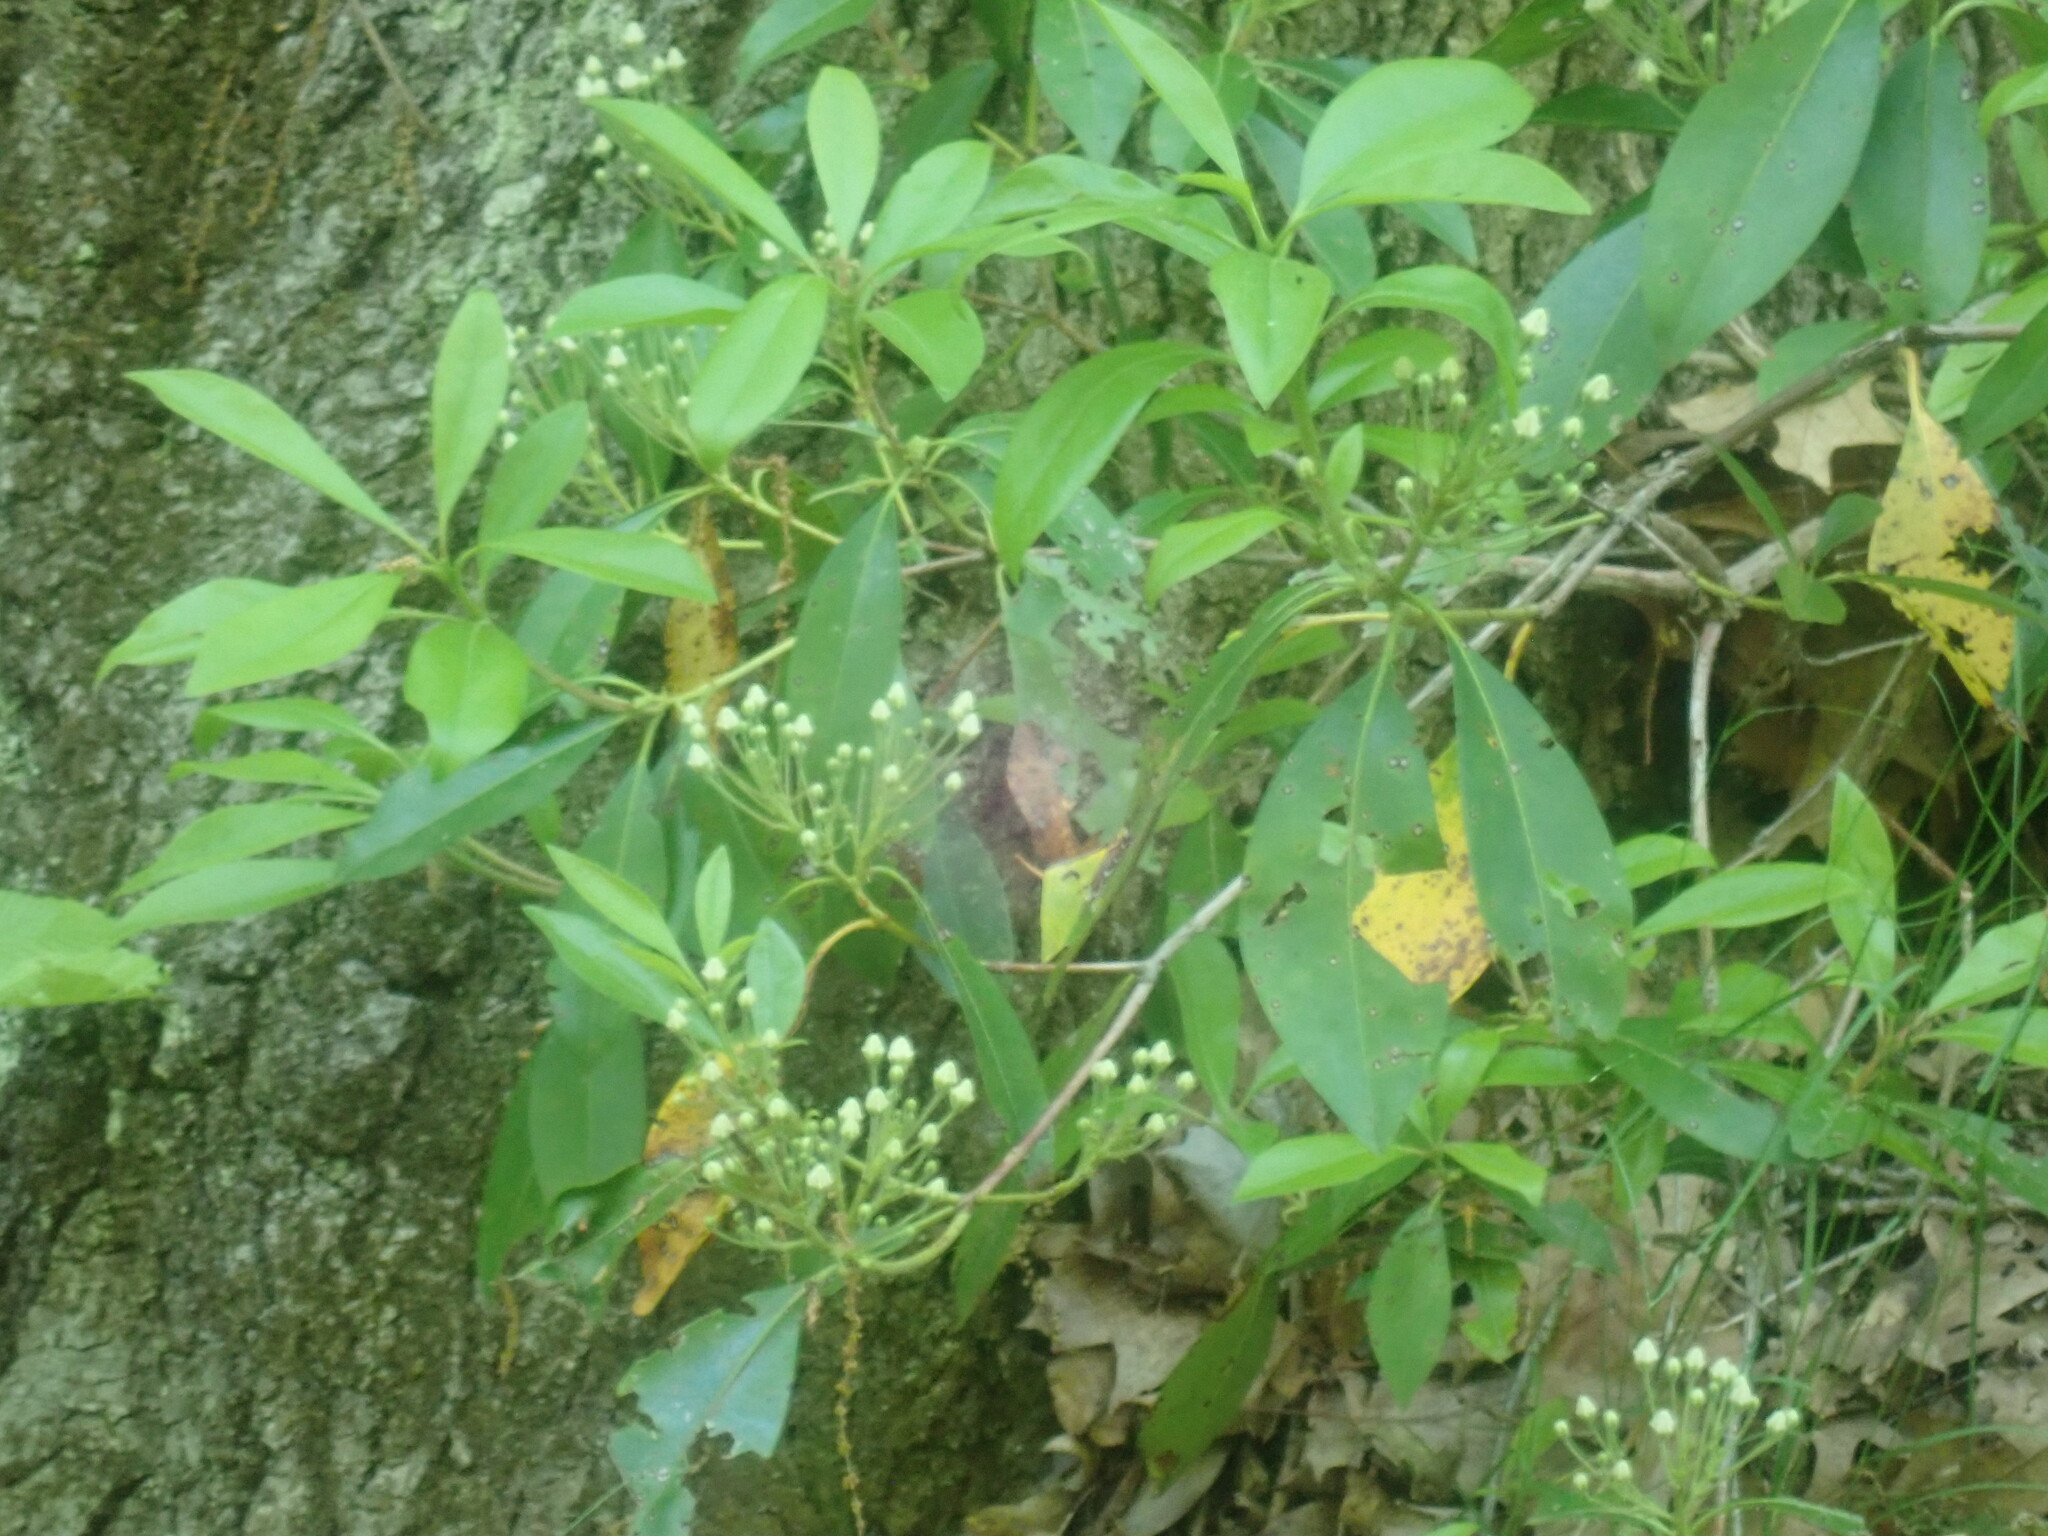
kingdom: Plantae
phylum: Tracheophyta
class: Magnoliopsida
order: Ericales
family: Ericaceae
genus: Kalmia
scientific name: Kalmia latifolia
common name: Mountain-laurel
